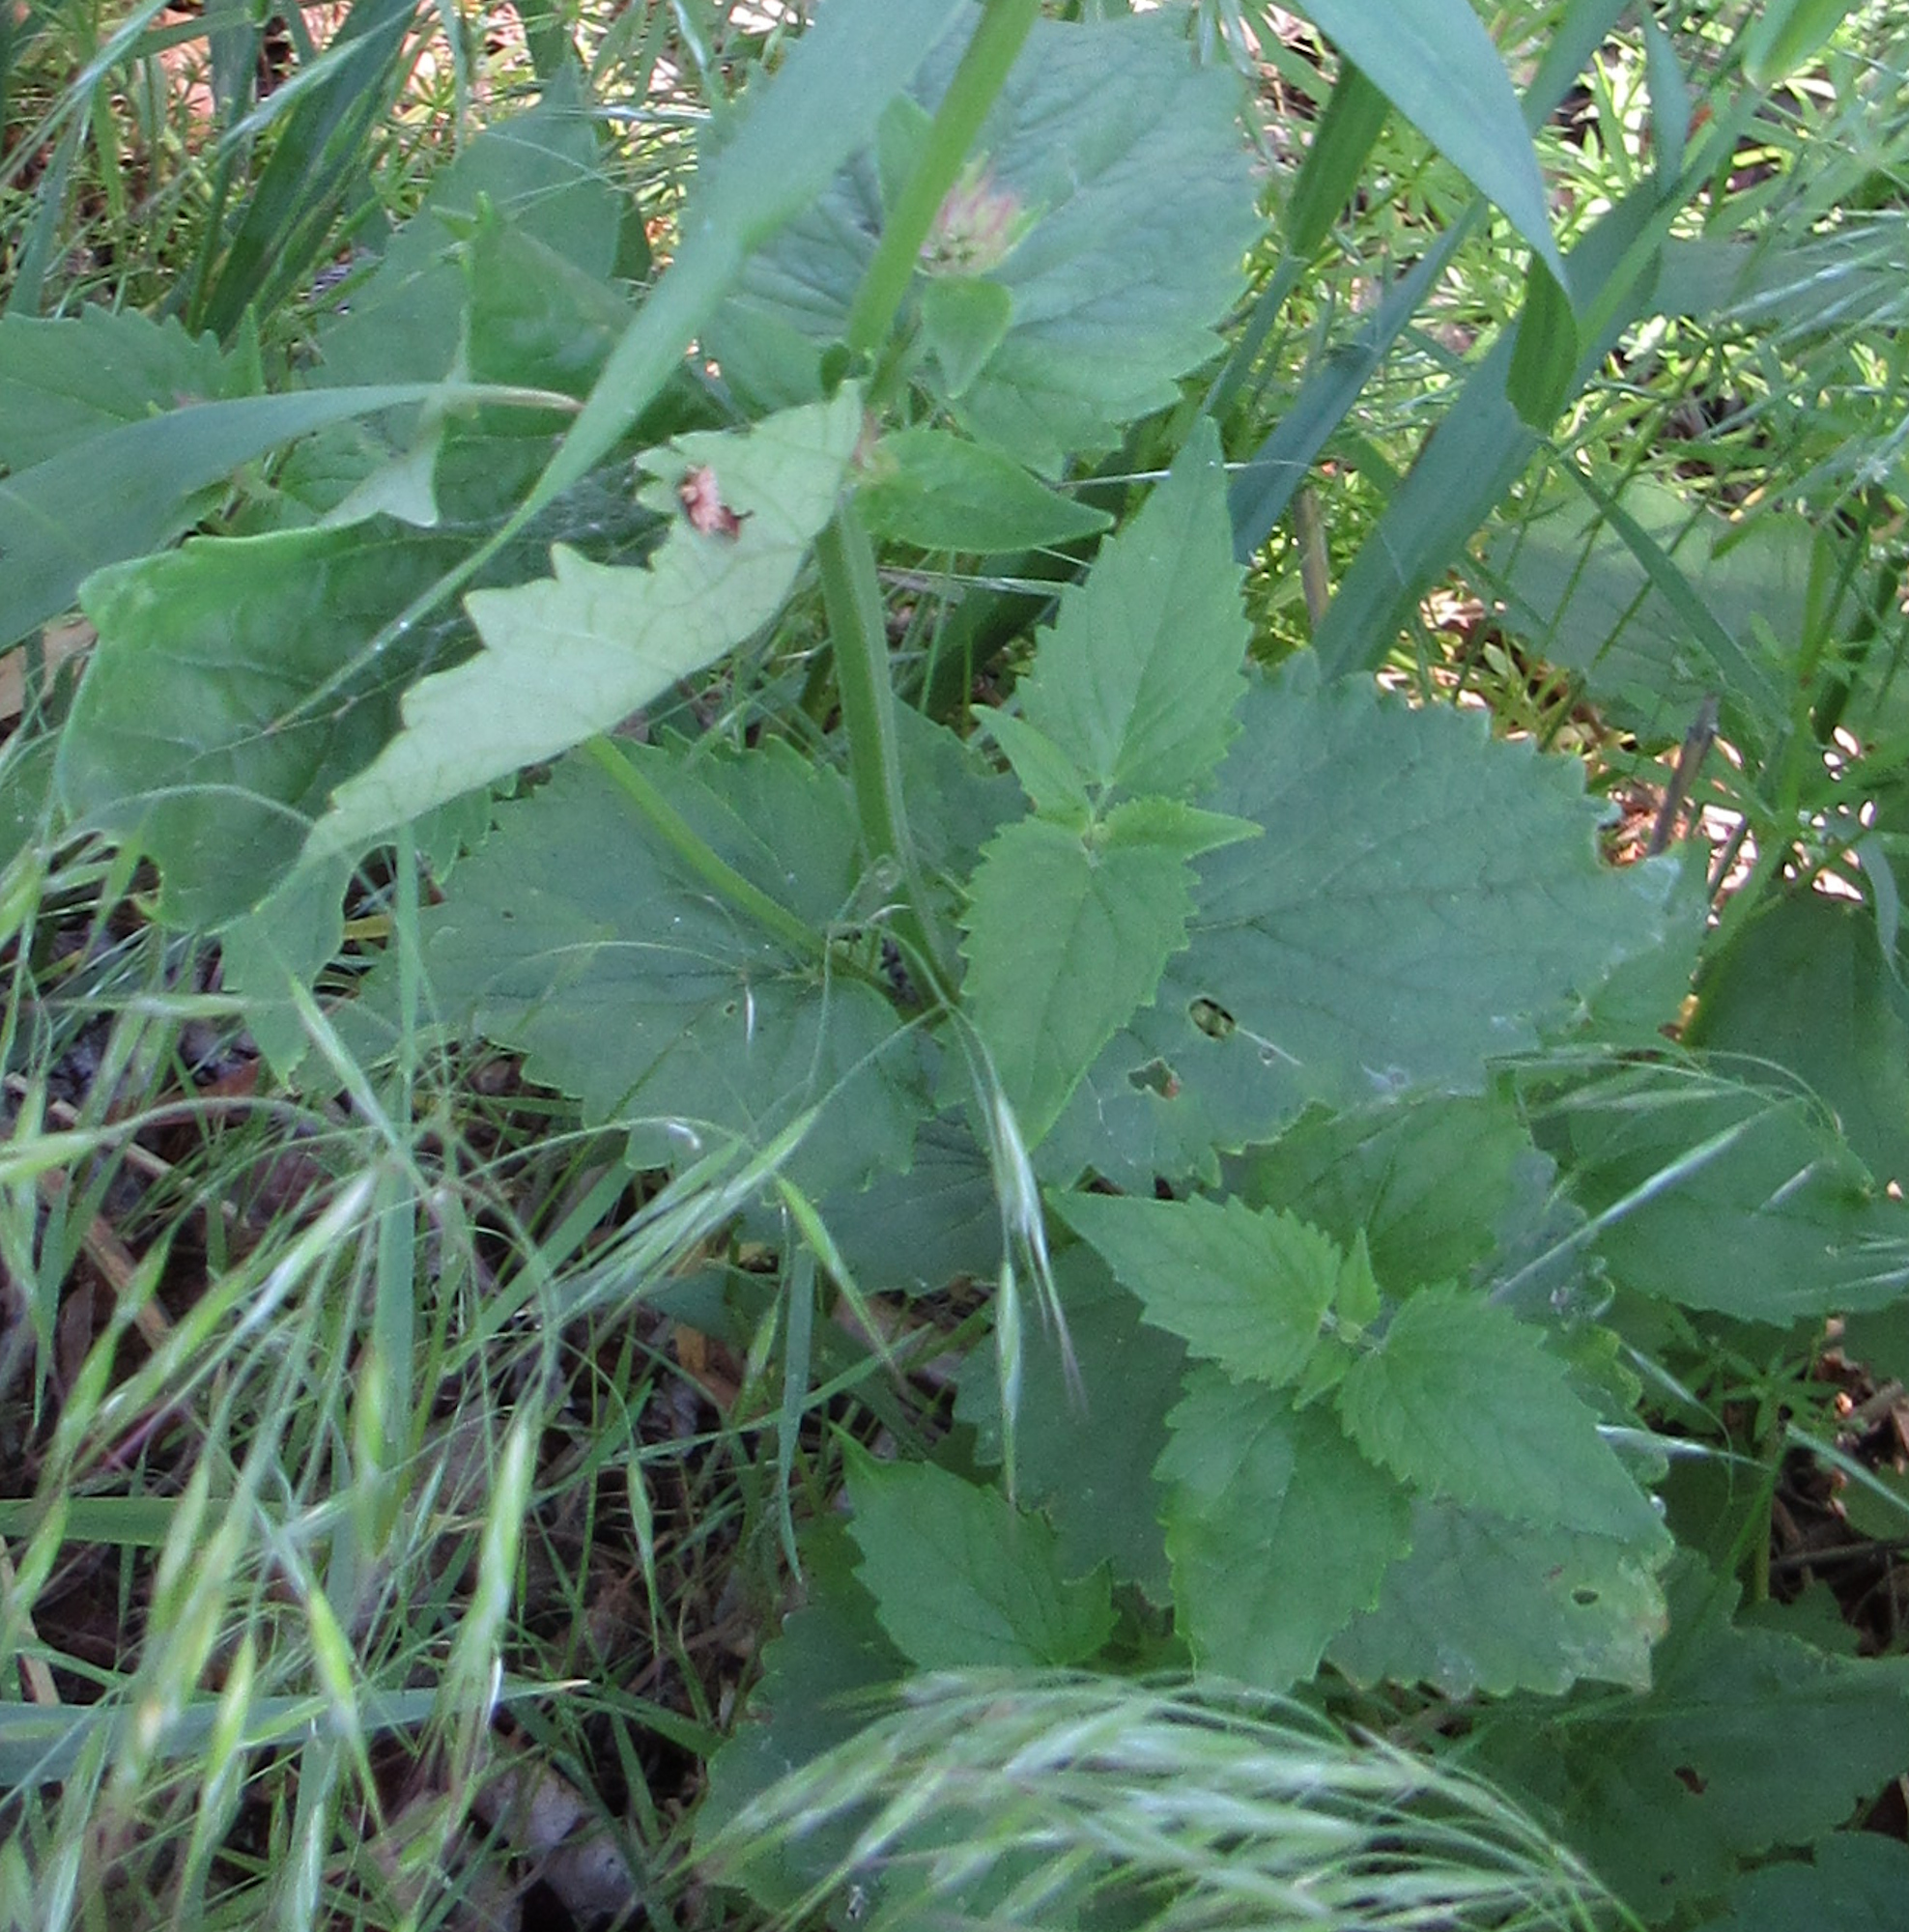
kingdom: Plantae
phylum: Tracheophyta
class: Magnoliopsida
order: Lamiales
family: Lamiaceae
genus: Agastache
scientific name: Agastache urticifolia
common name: Horsemint giant hyssop
